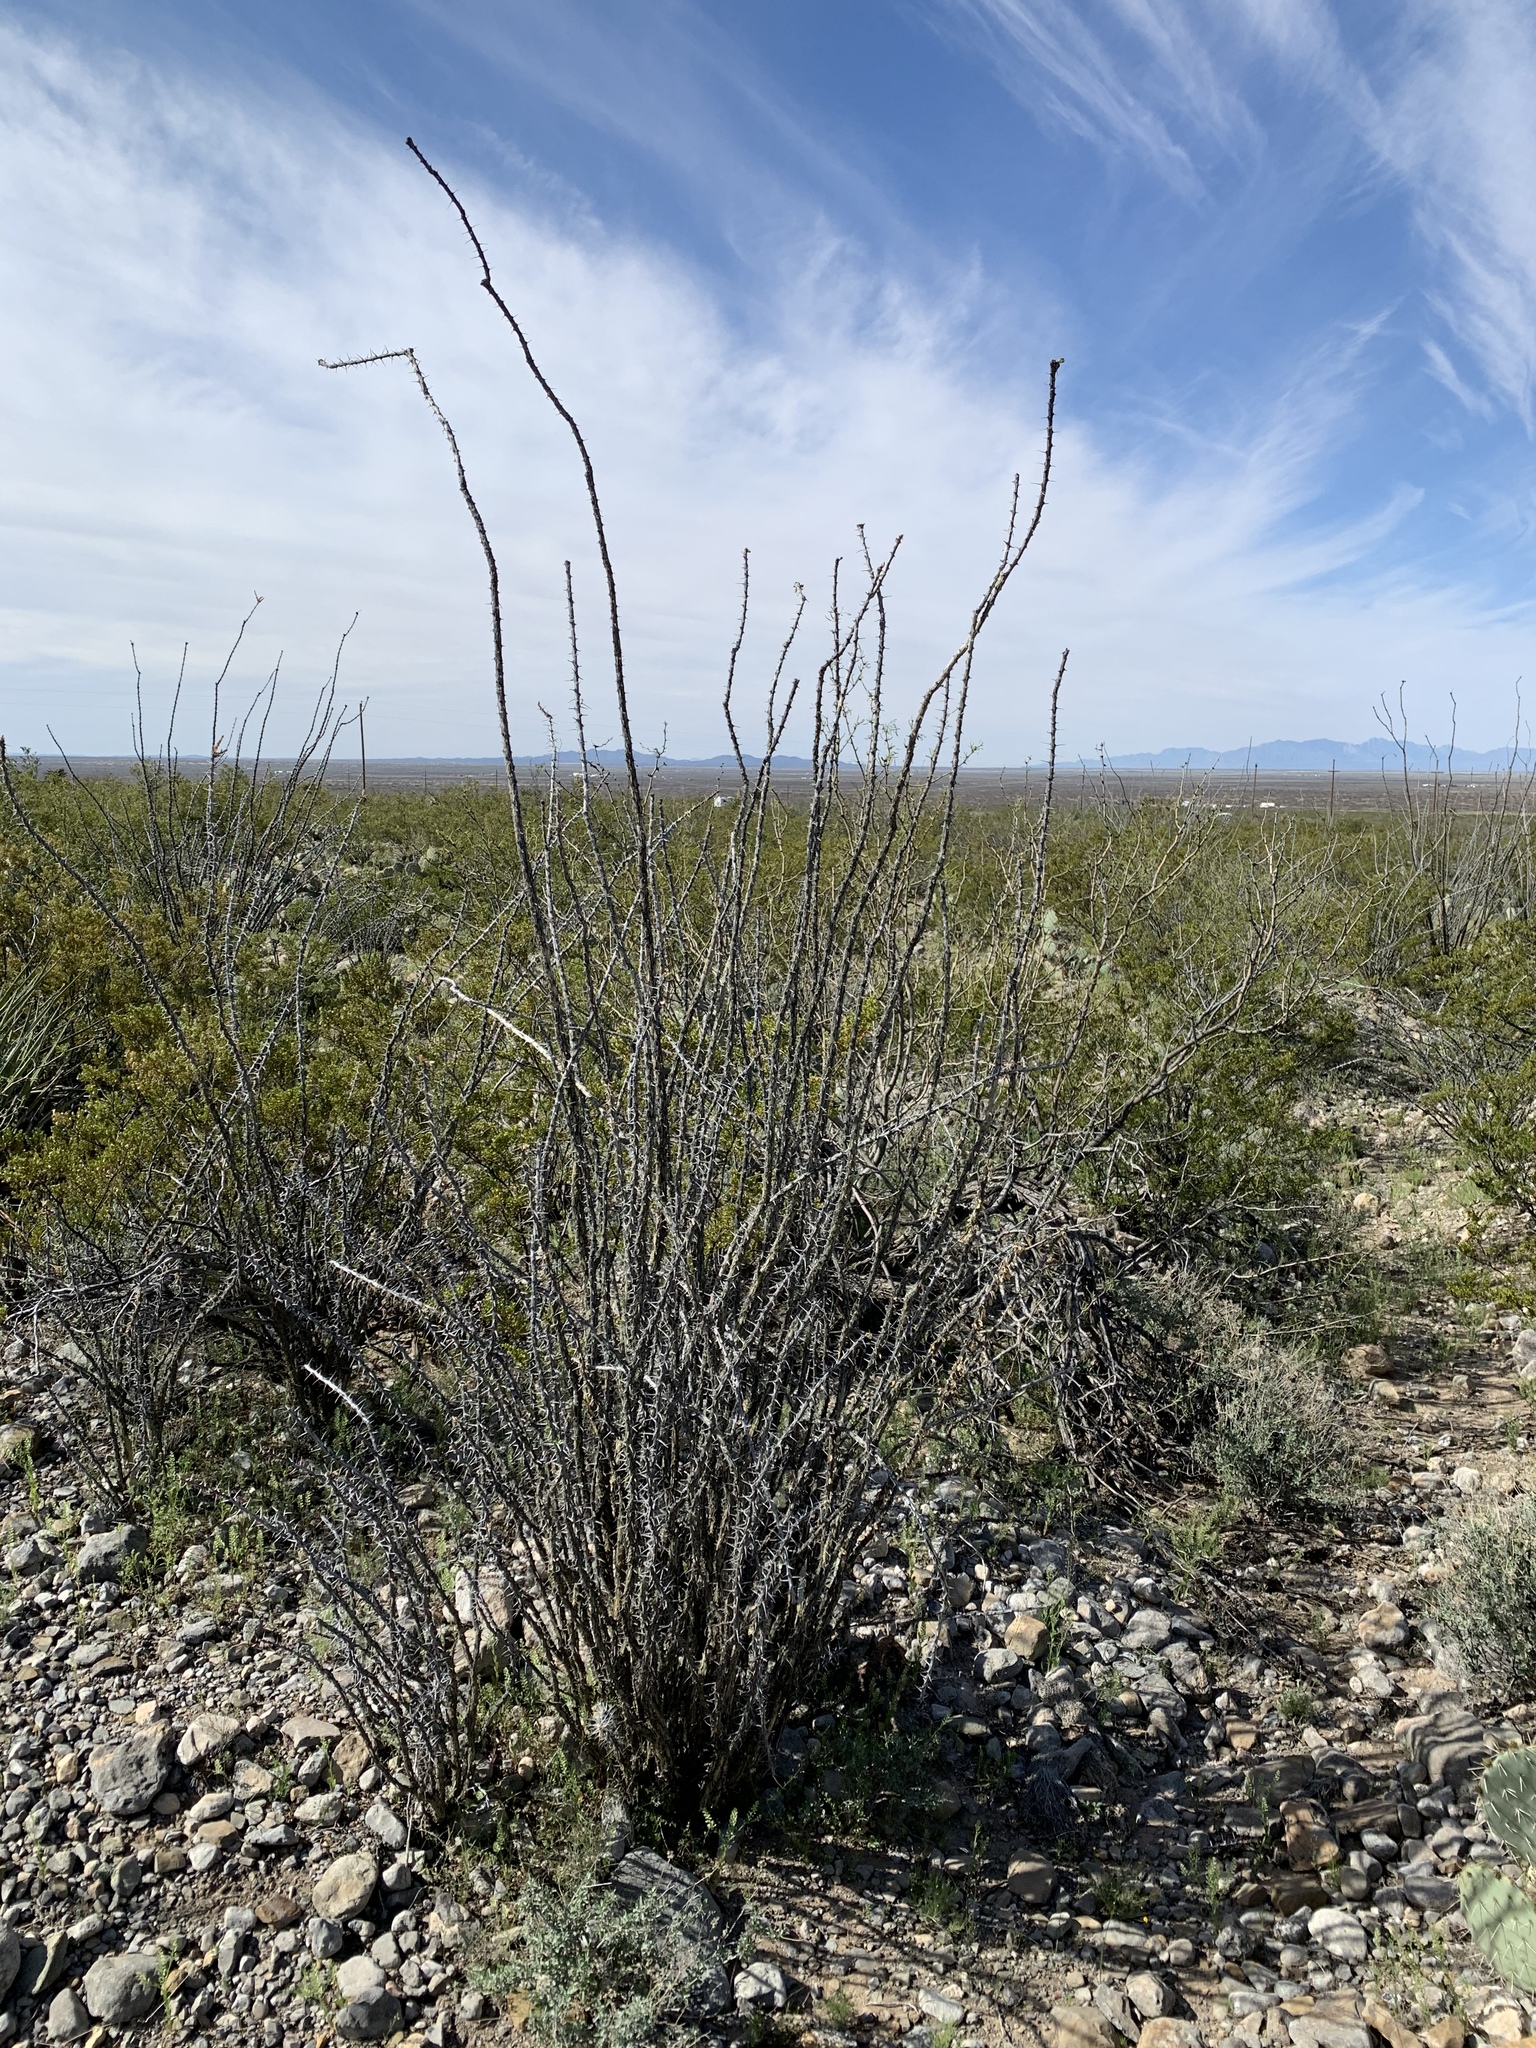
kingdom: Plantae
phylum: Tracheophyta
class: Magnoliopsida
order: Ericales
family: Fouquieriaceae
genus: Fouquieria
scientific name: Fouquieria splendens
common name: Vine-cactus
